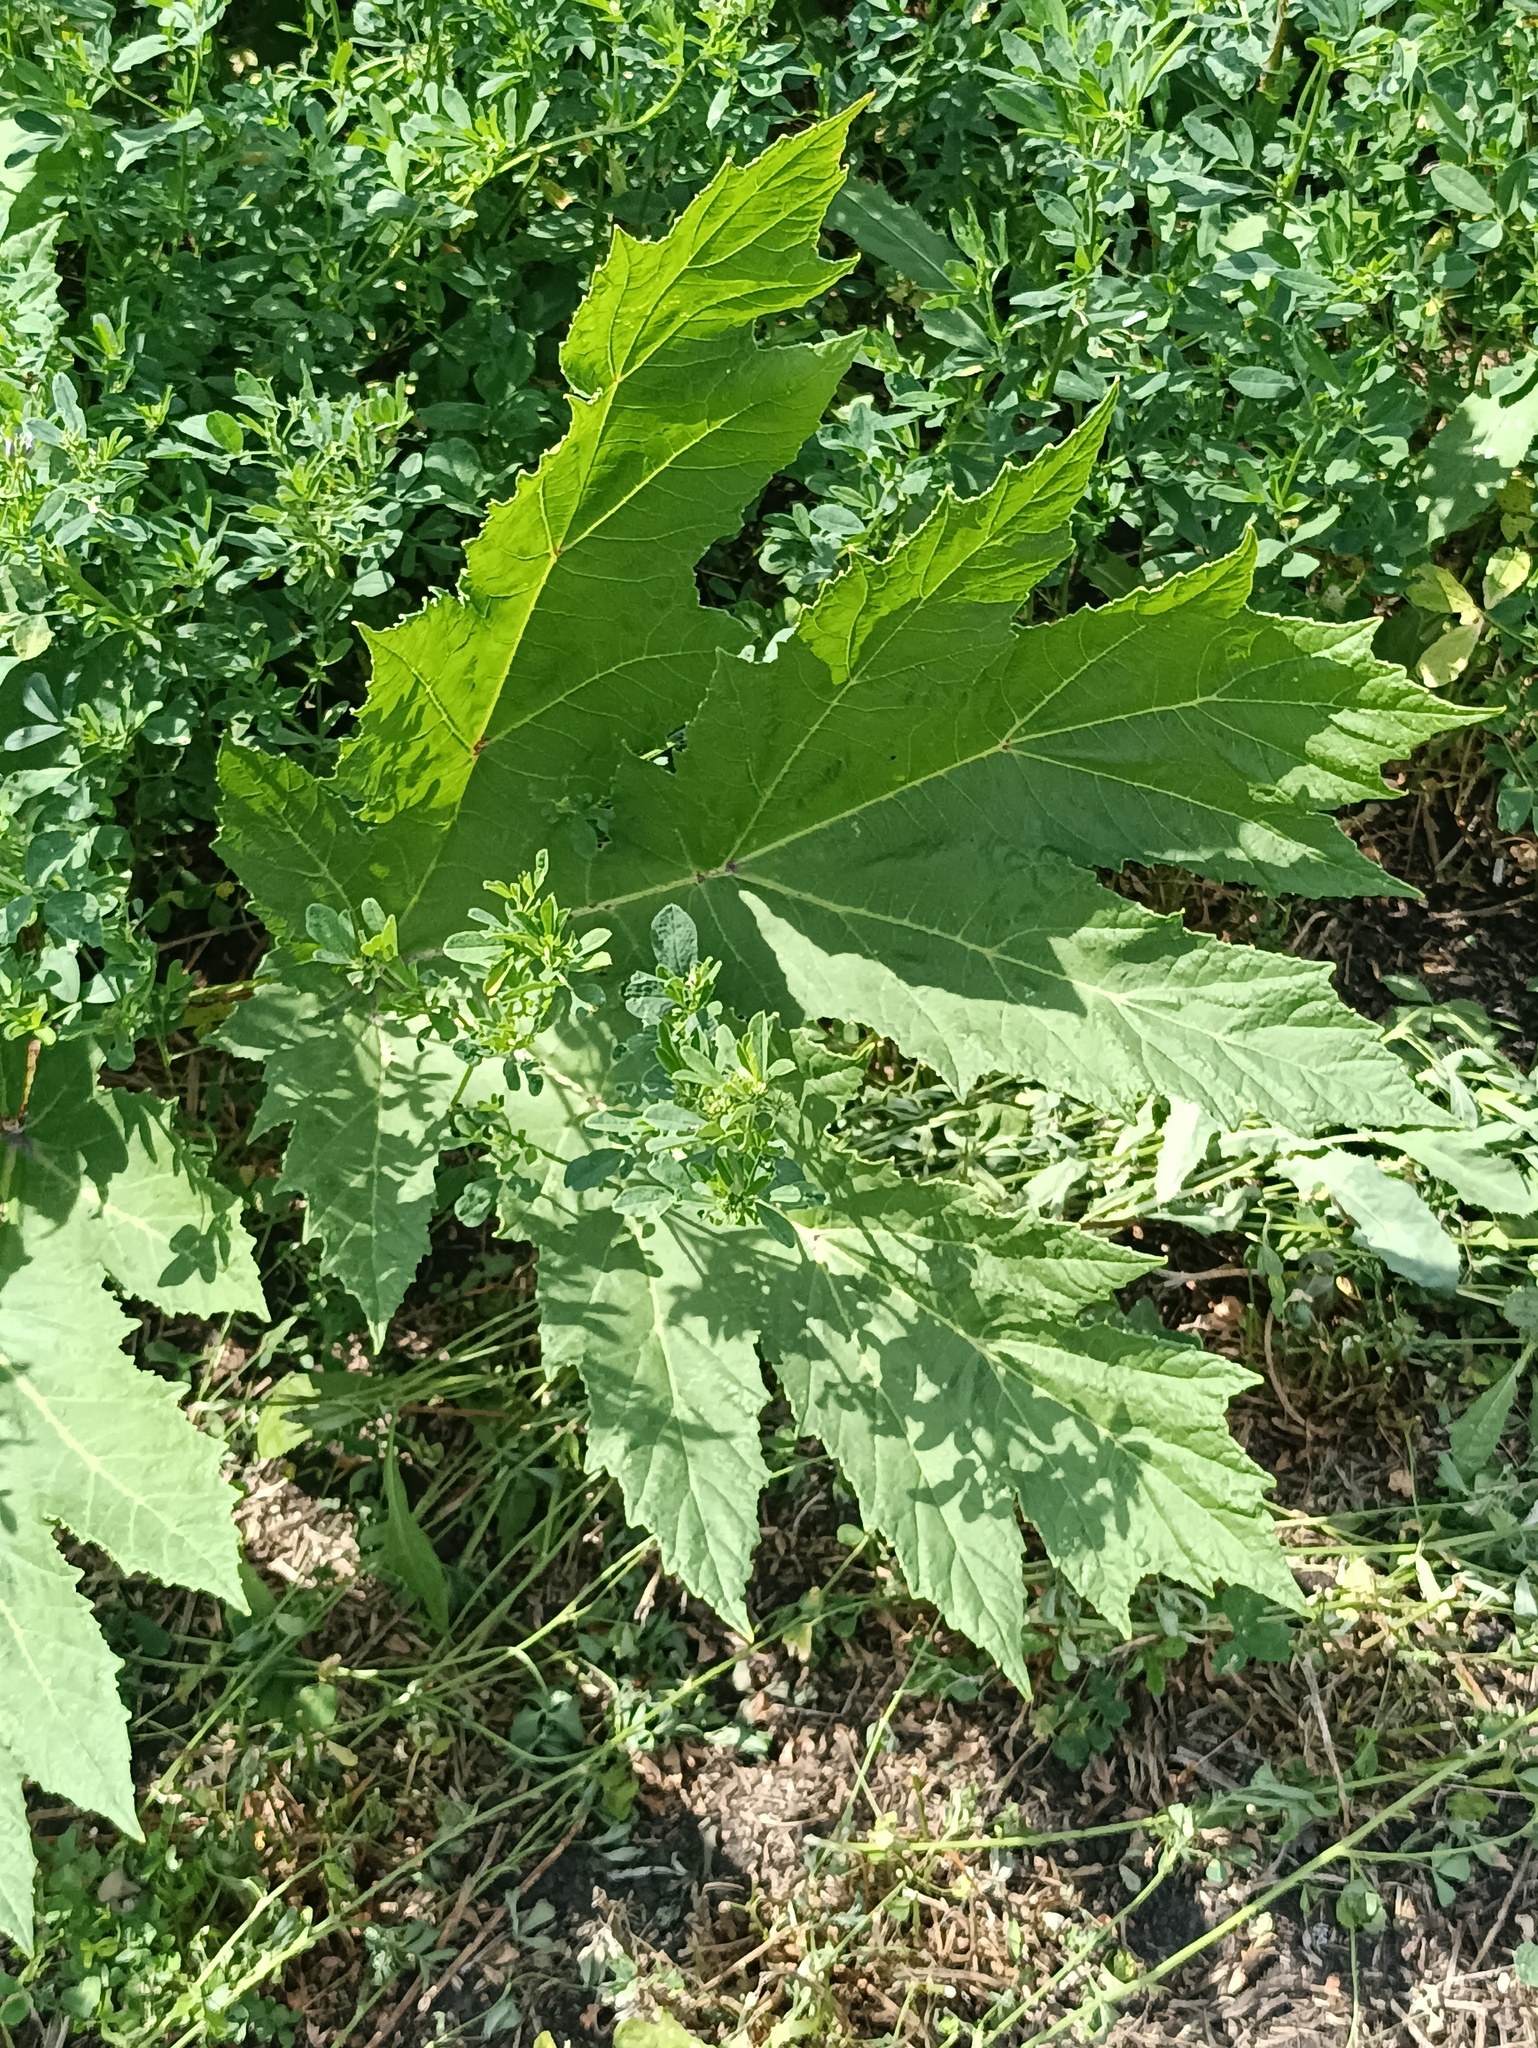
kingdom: Plantae
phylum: Tracheophyta
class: Magnoliopsida
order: Apiales
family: Apiaceae
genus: Heracleum
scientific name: Heracleum sosnowskyi
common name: Sosnowsky's hogweed
